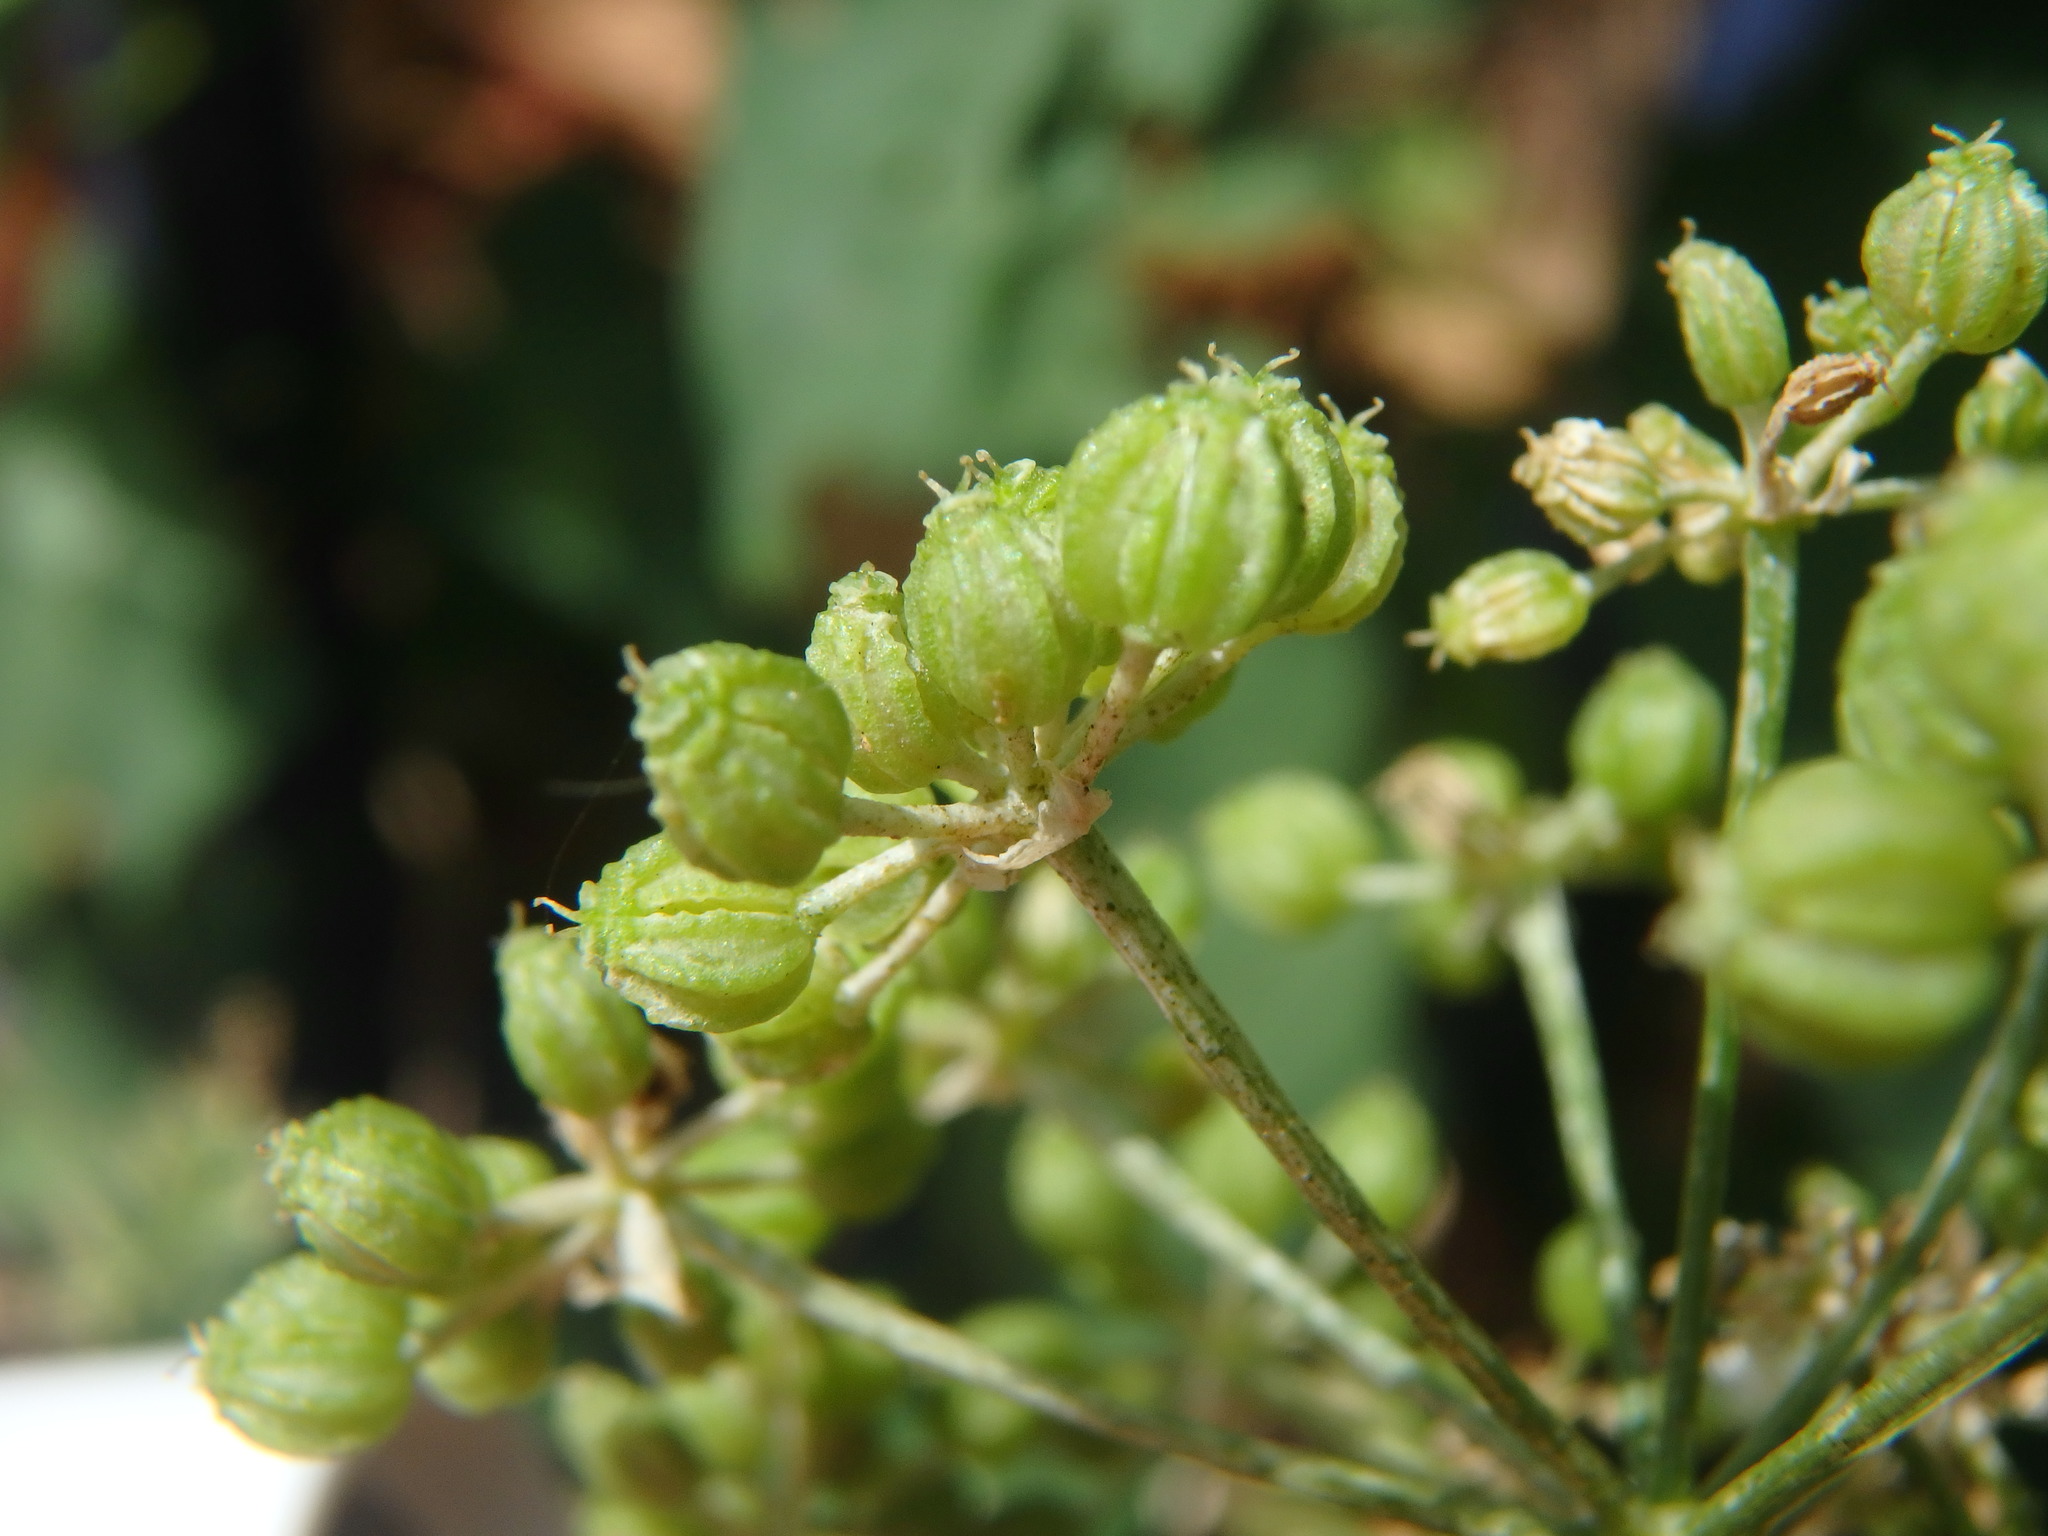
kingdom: Plantae
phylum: Tracheophyta
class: Magnoliopsida
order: Apiales
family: Apiaceae
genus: Conium
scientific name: Conium maculatum
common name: Hemlock
